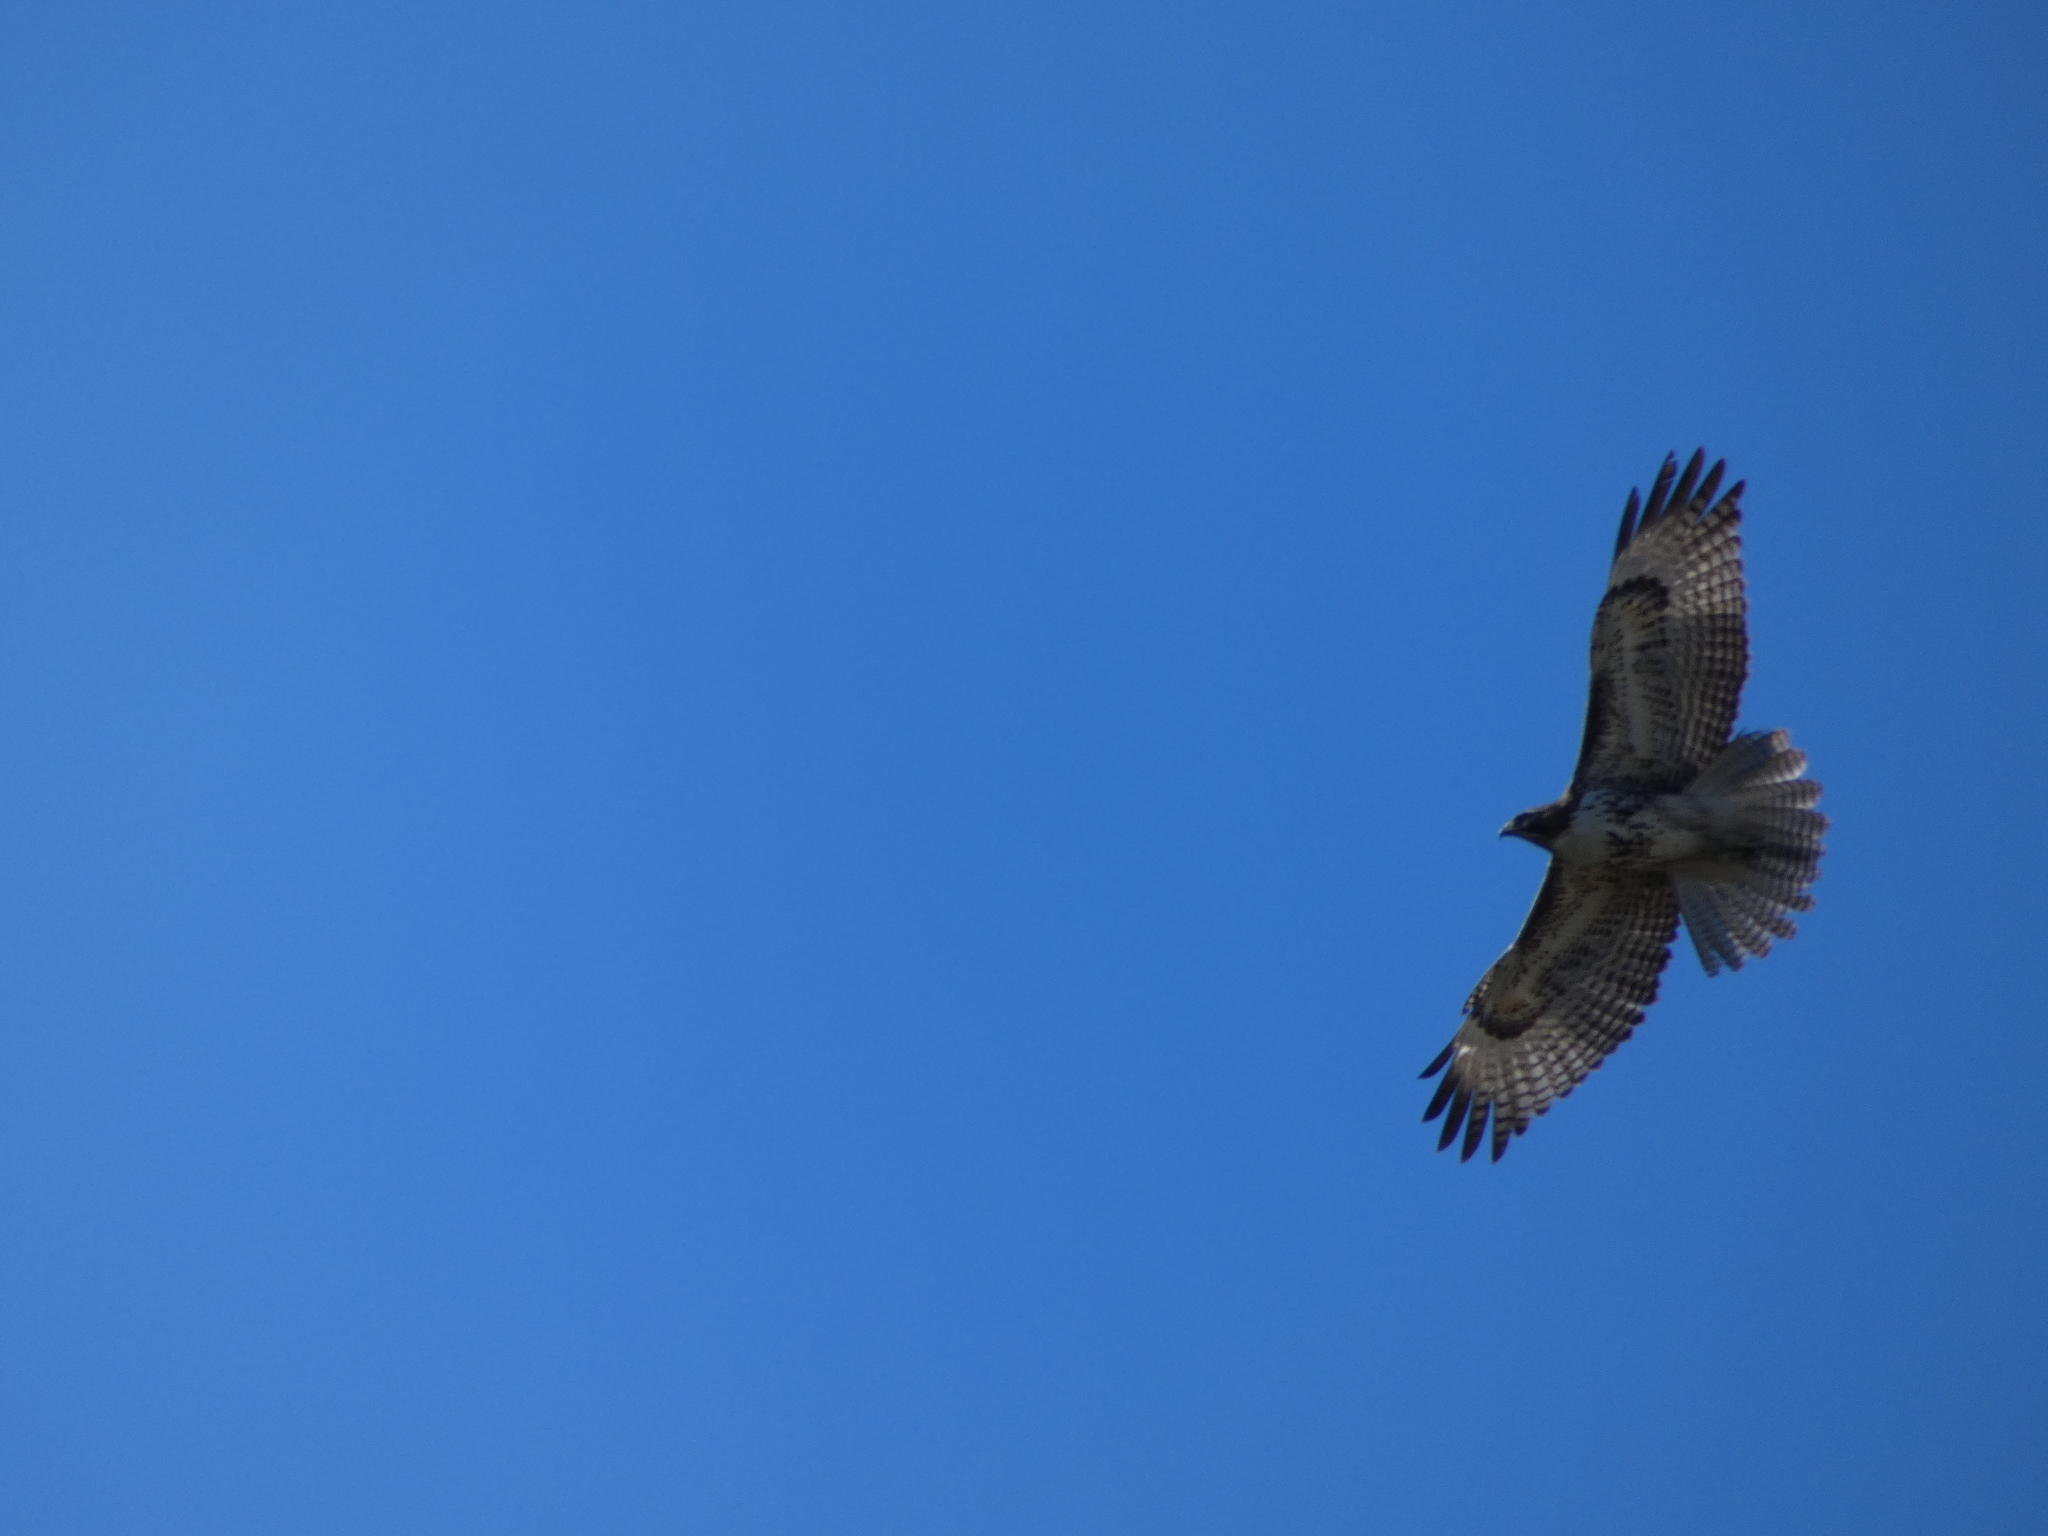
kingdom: Animalia
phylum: Chordata
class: Aves
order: Accipitriformes
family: Accipitridae
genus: Buteo
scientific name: Buteo jamaicensis
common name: Red-tailed hawk
